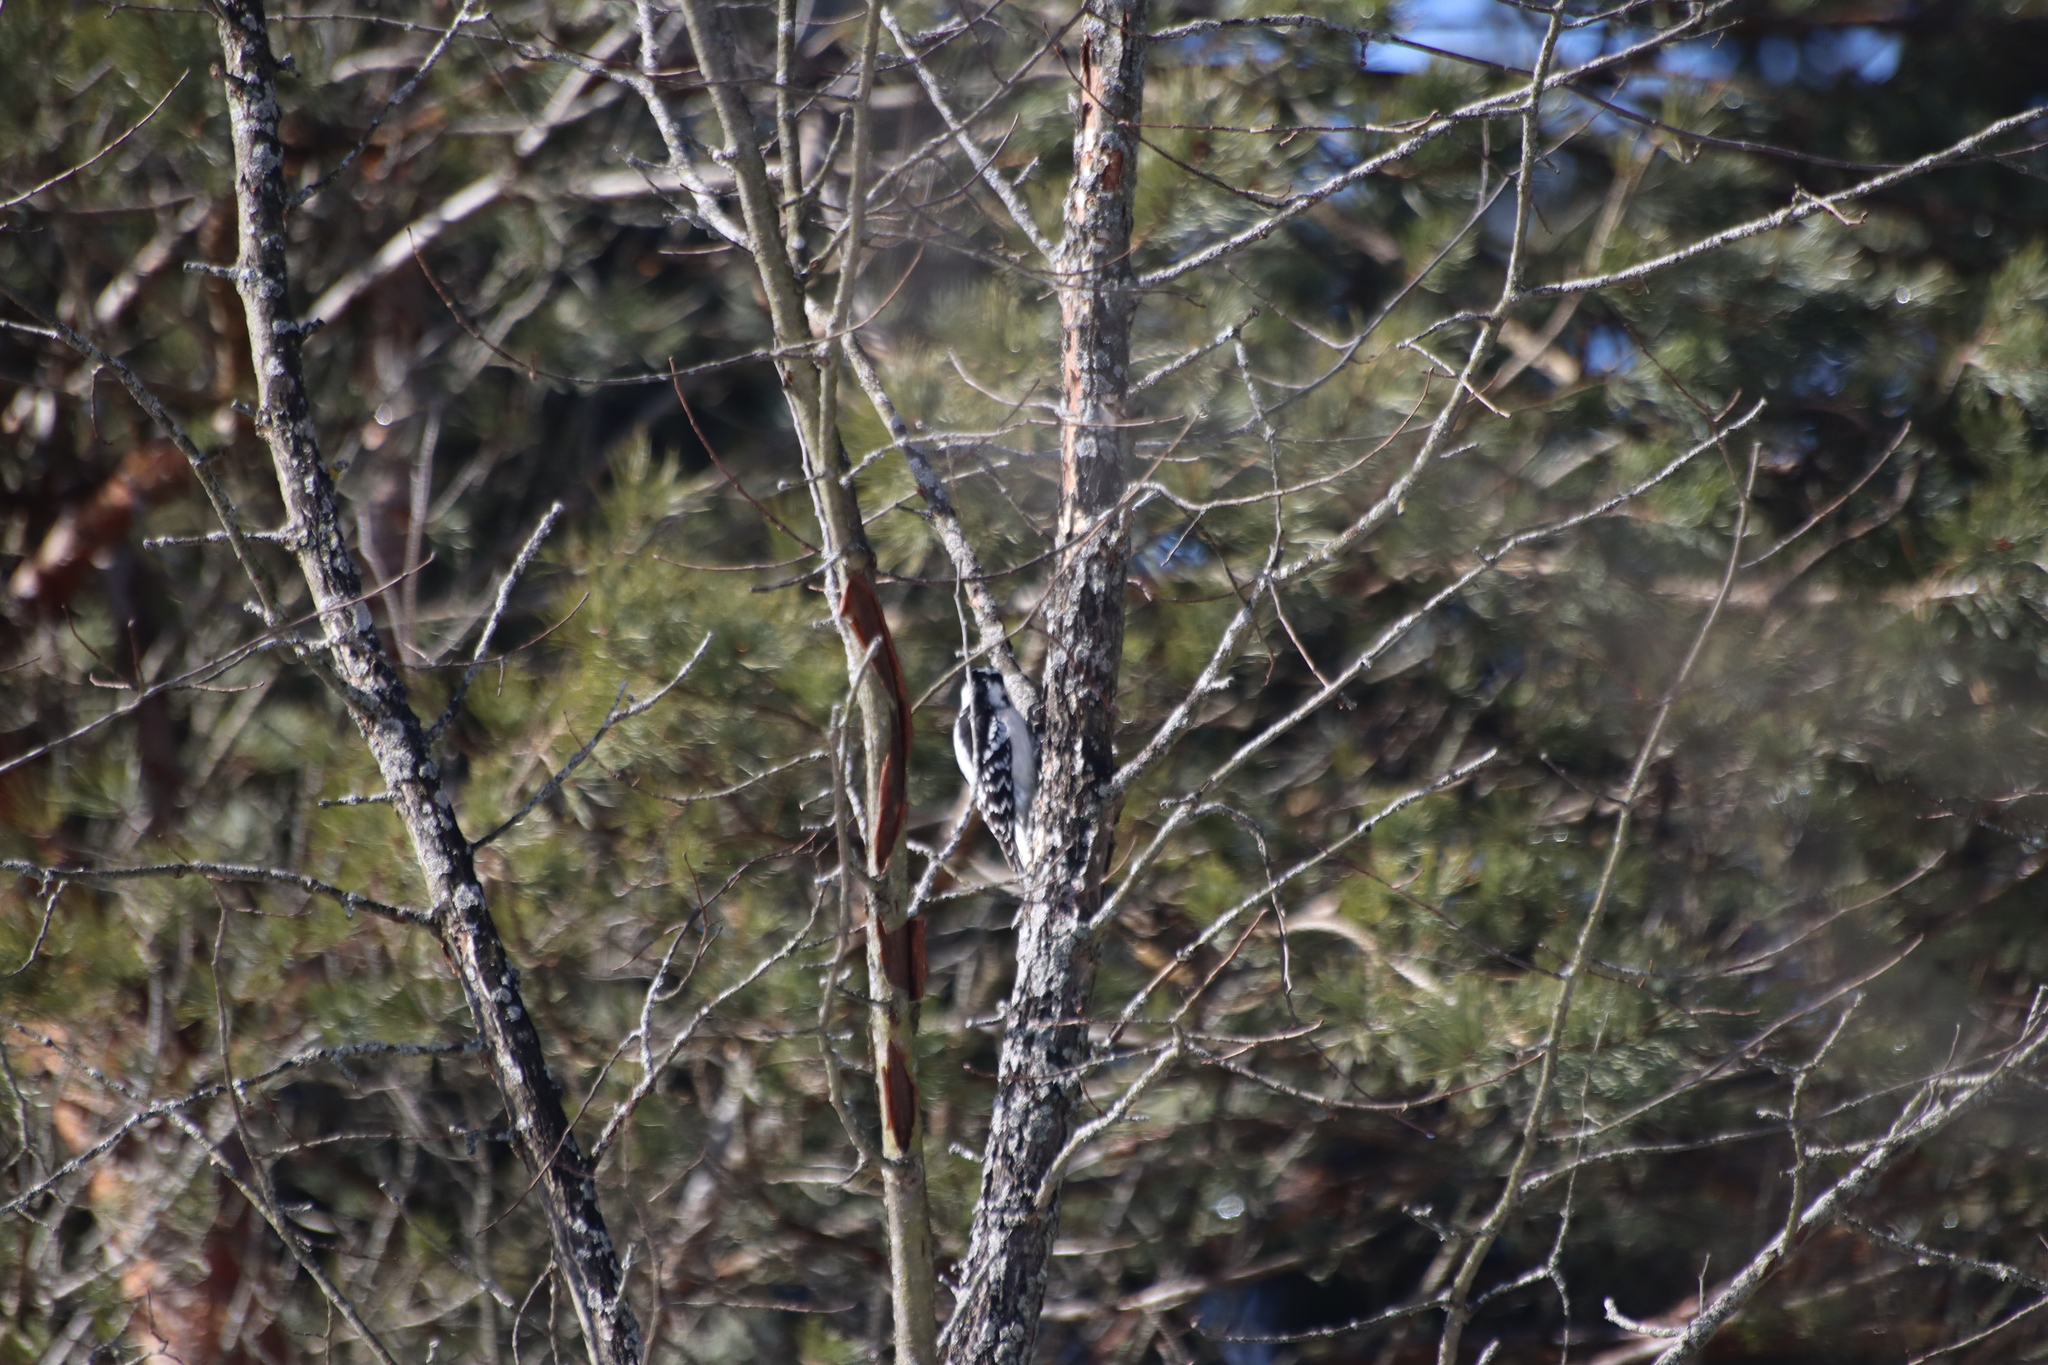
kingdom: Animalia
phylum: Chordata
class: Aves
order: Piciformes
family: Picidae
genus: Leuconotopicus
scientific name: Leuconotopicus villosus
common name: Hairy woodpecker
